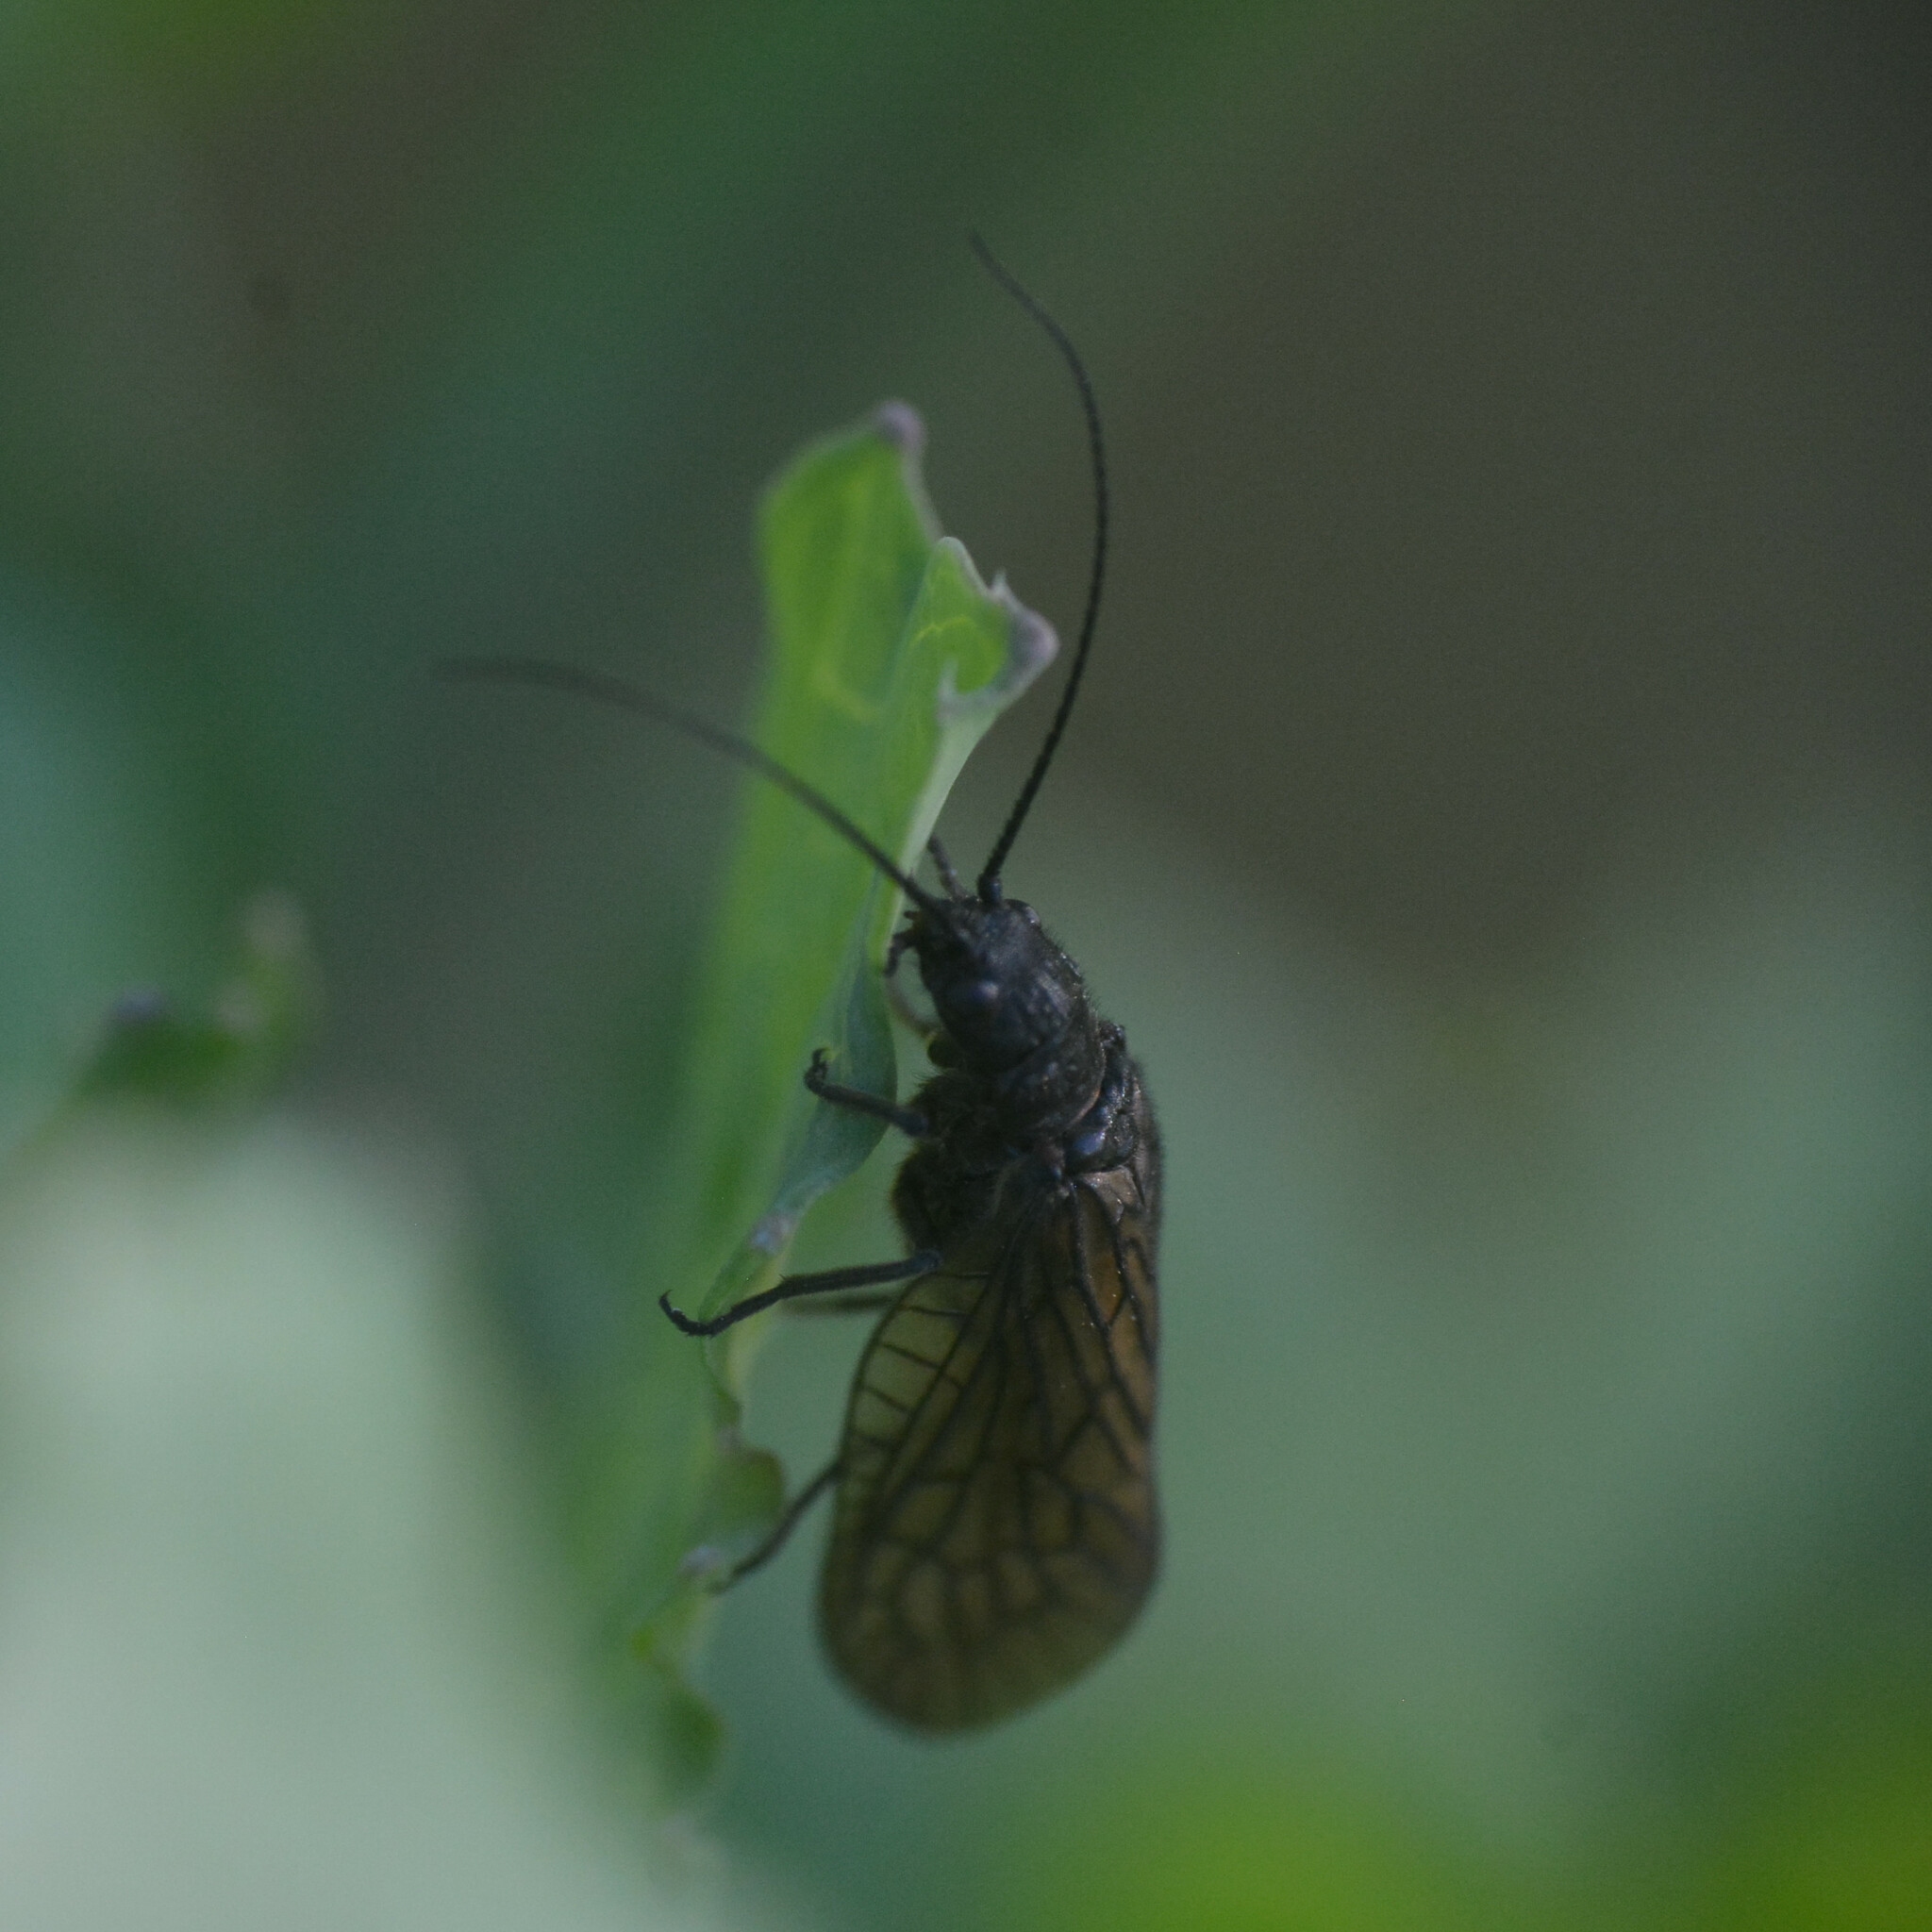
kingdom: Animalia
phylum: Arthropoda
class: Insecta
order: Megaloptera
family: Sialidae
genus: Sialis
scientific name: Sialis
